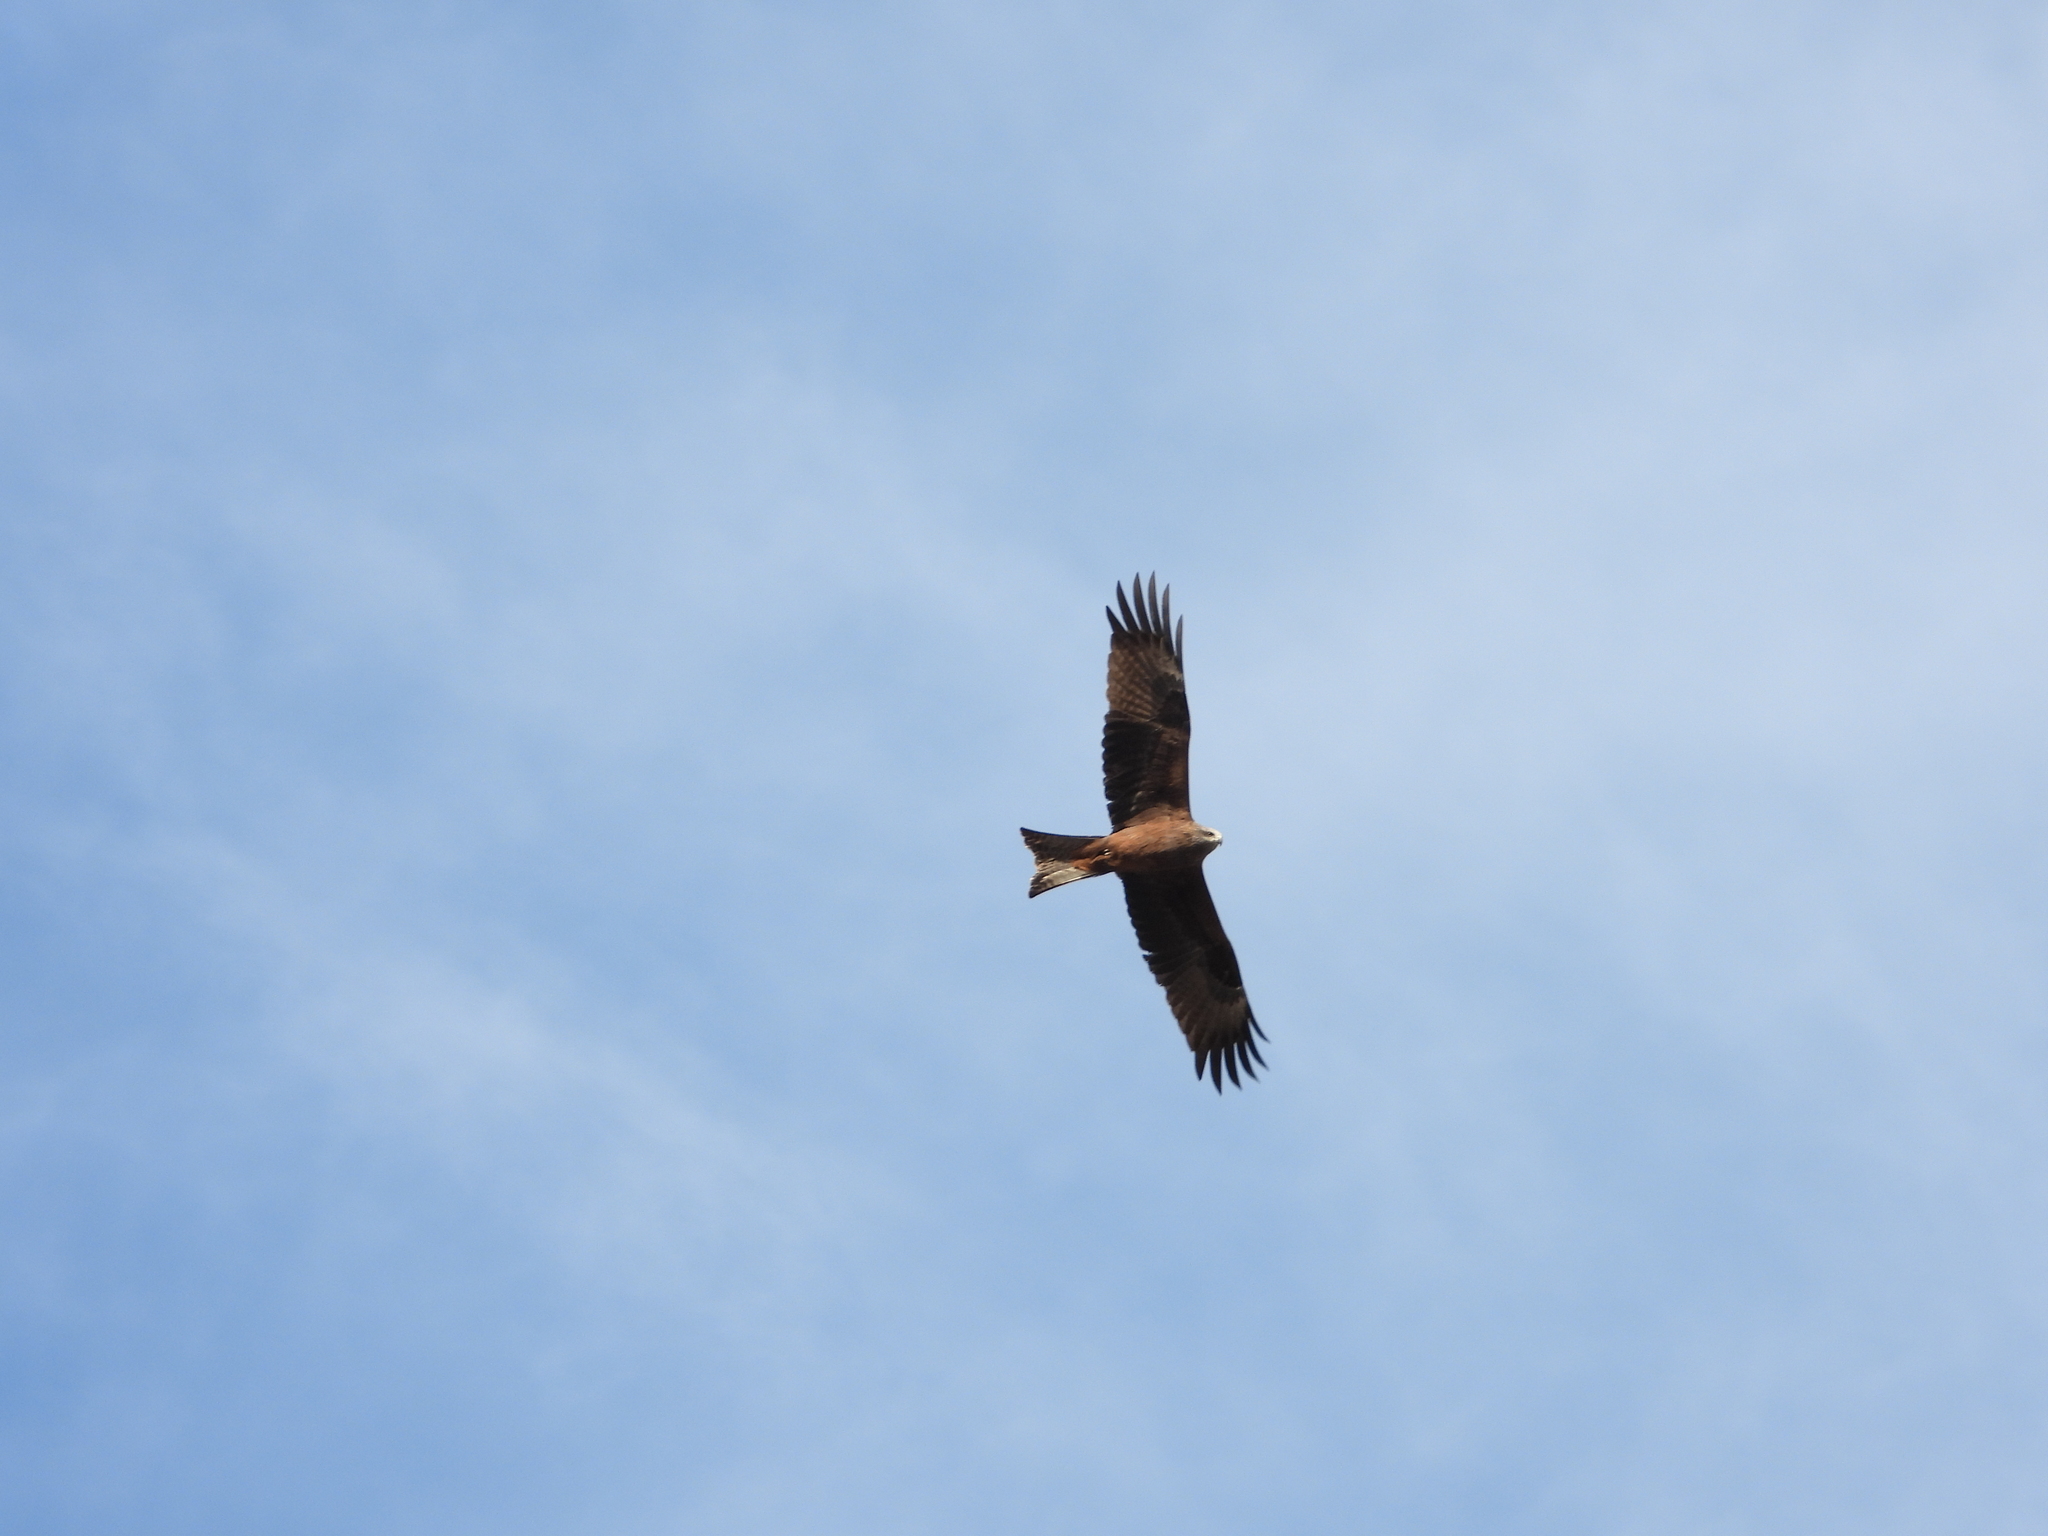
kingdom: Animalia
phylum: Chordata
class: Aves
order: Accipitriformes
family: Accipitridae
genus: Milvus
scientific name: Milvus migrans
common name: Black kite
